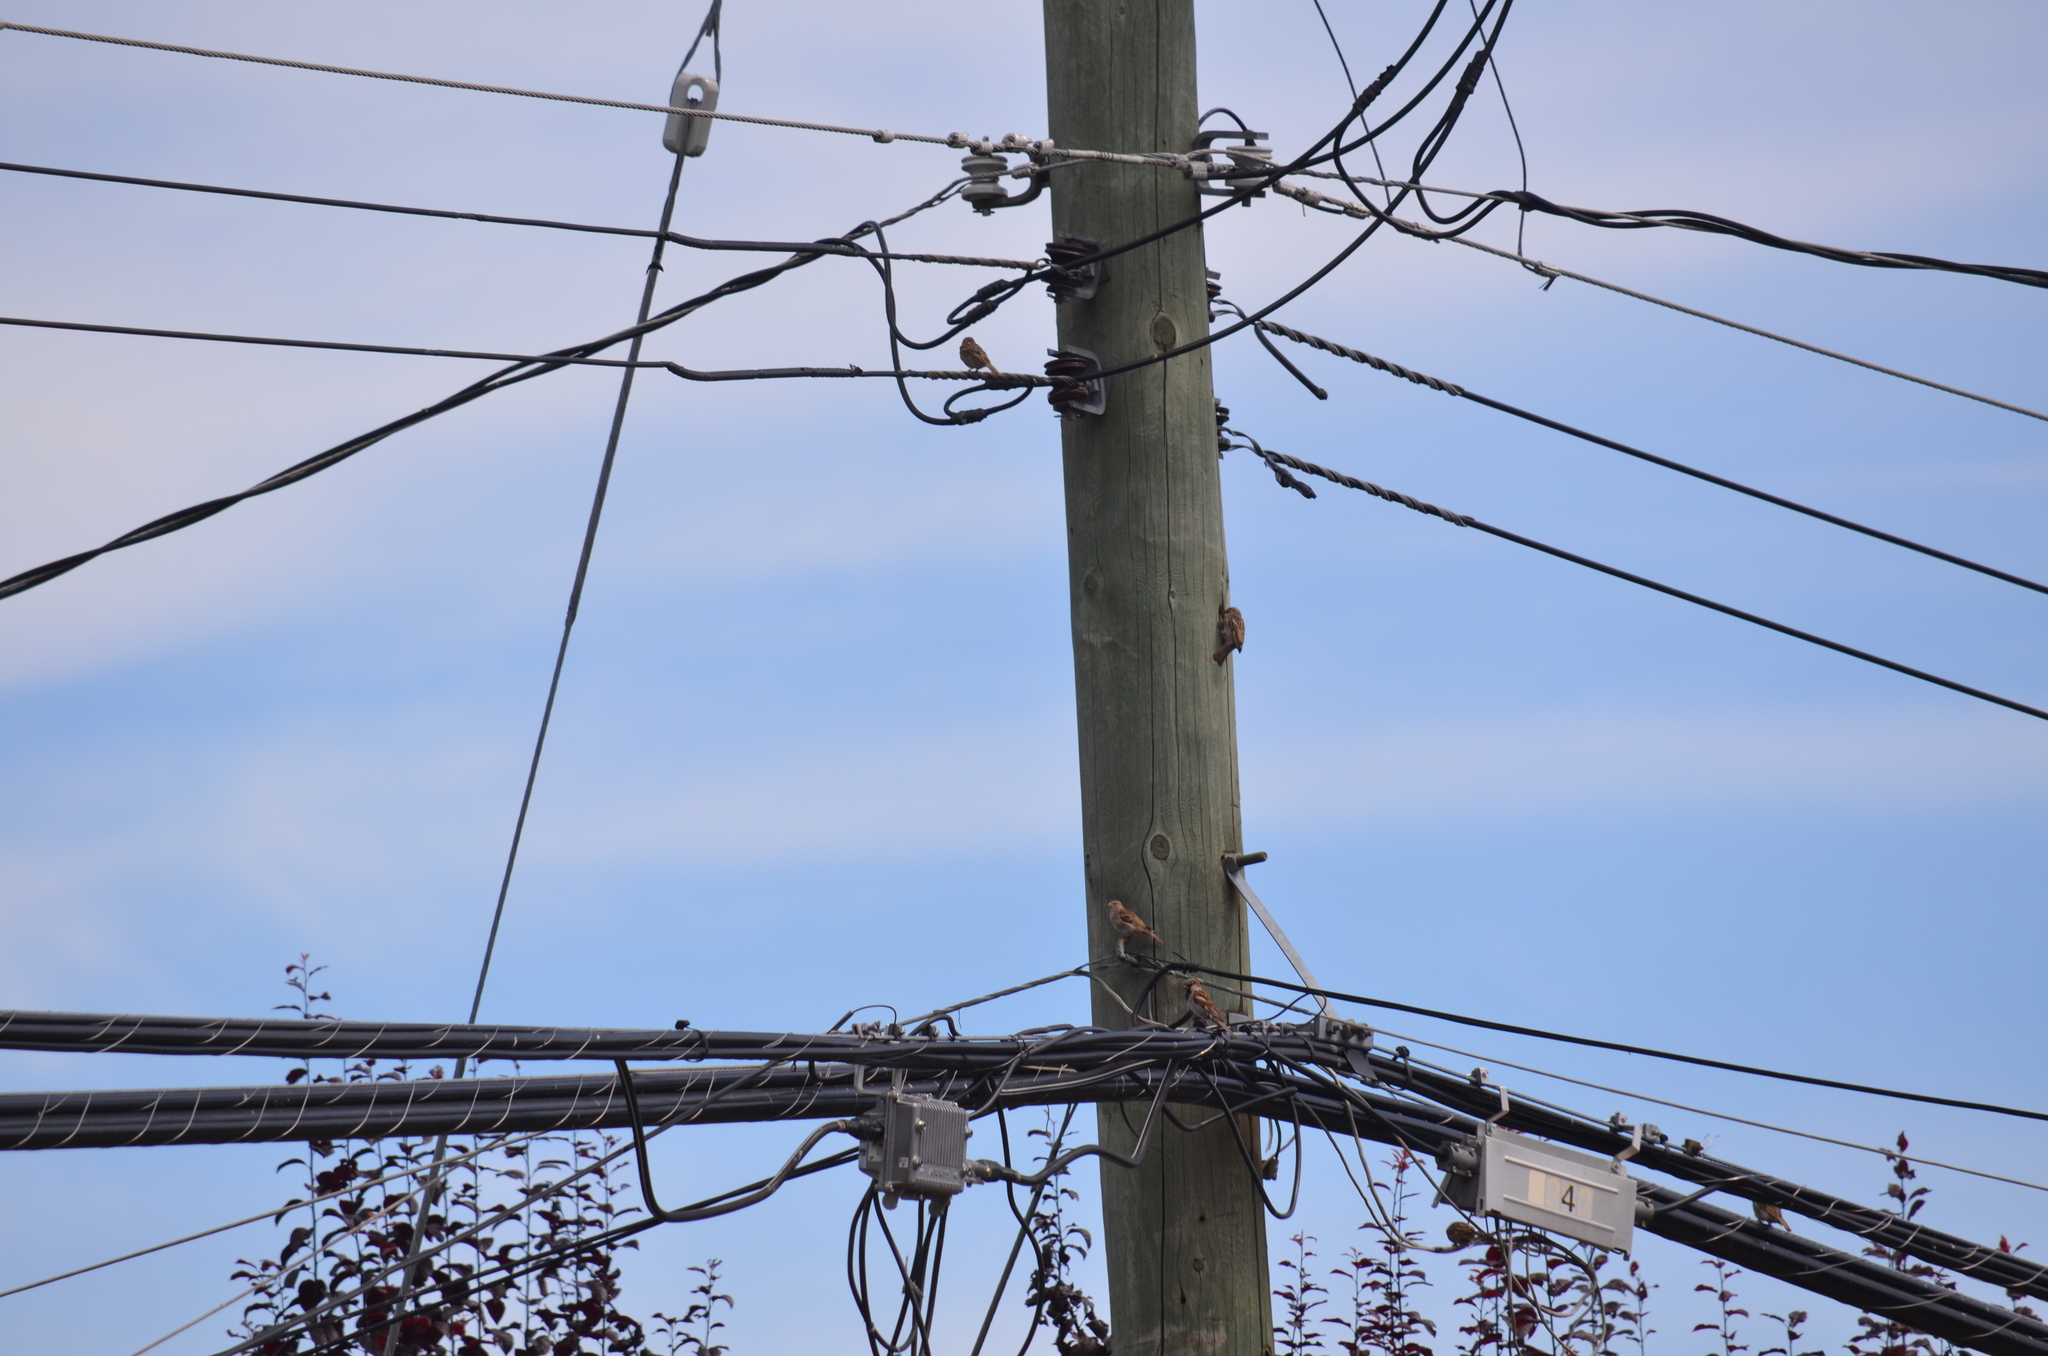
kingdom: Animalia
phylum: Chordata
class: Aves
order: Passeriformes
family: Passeridae
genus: Passer
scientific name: Passer domesticus
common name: House sparrow
